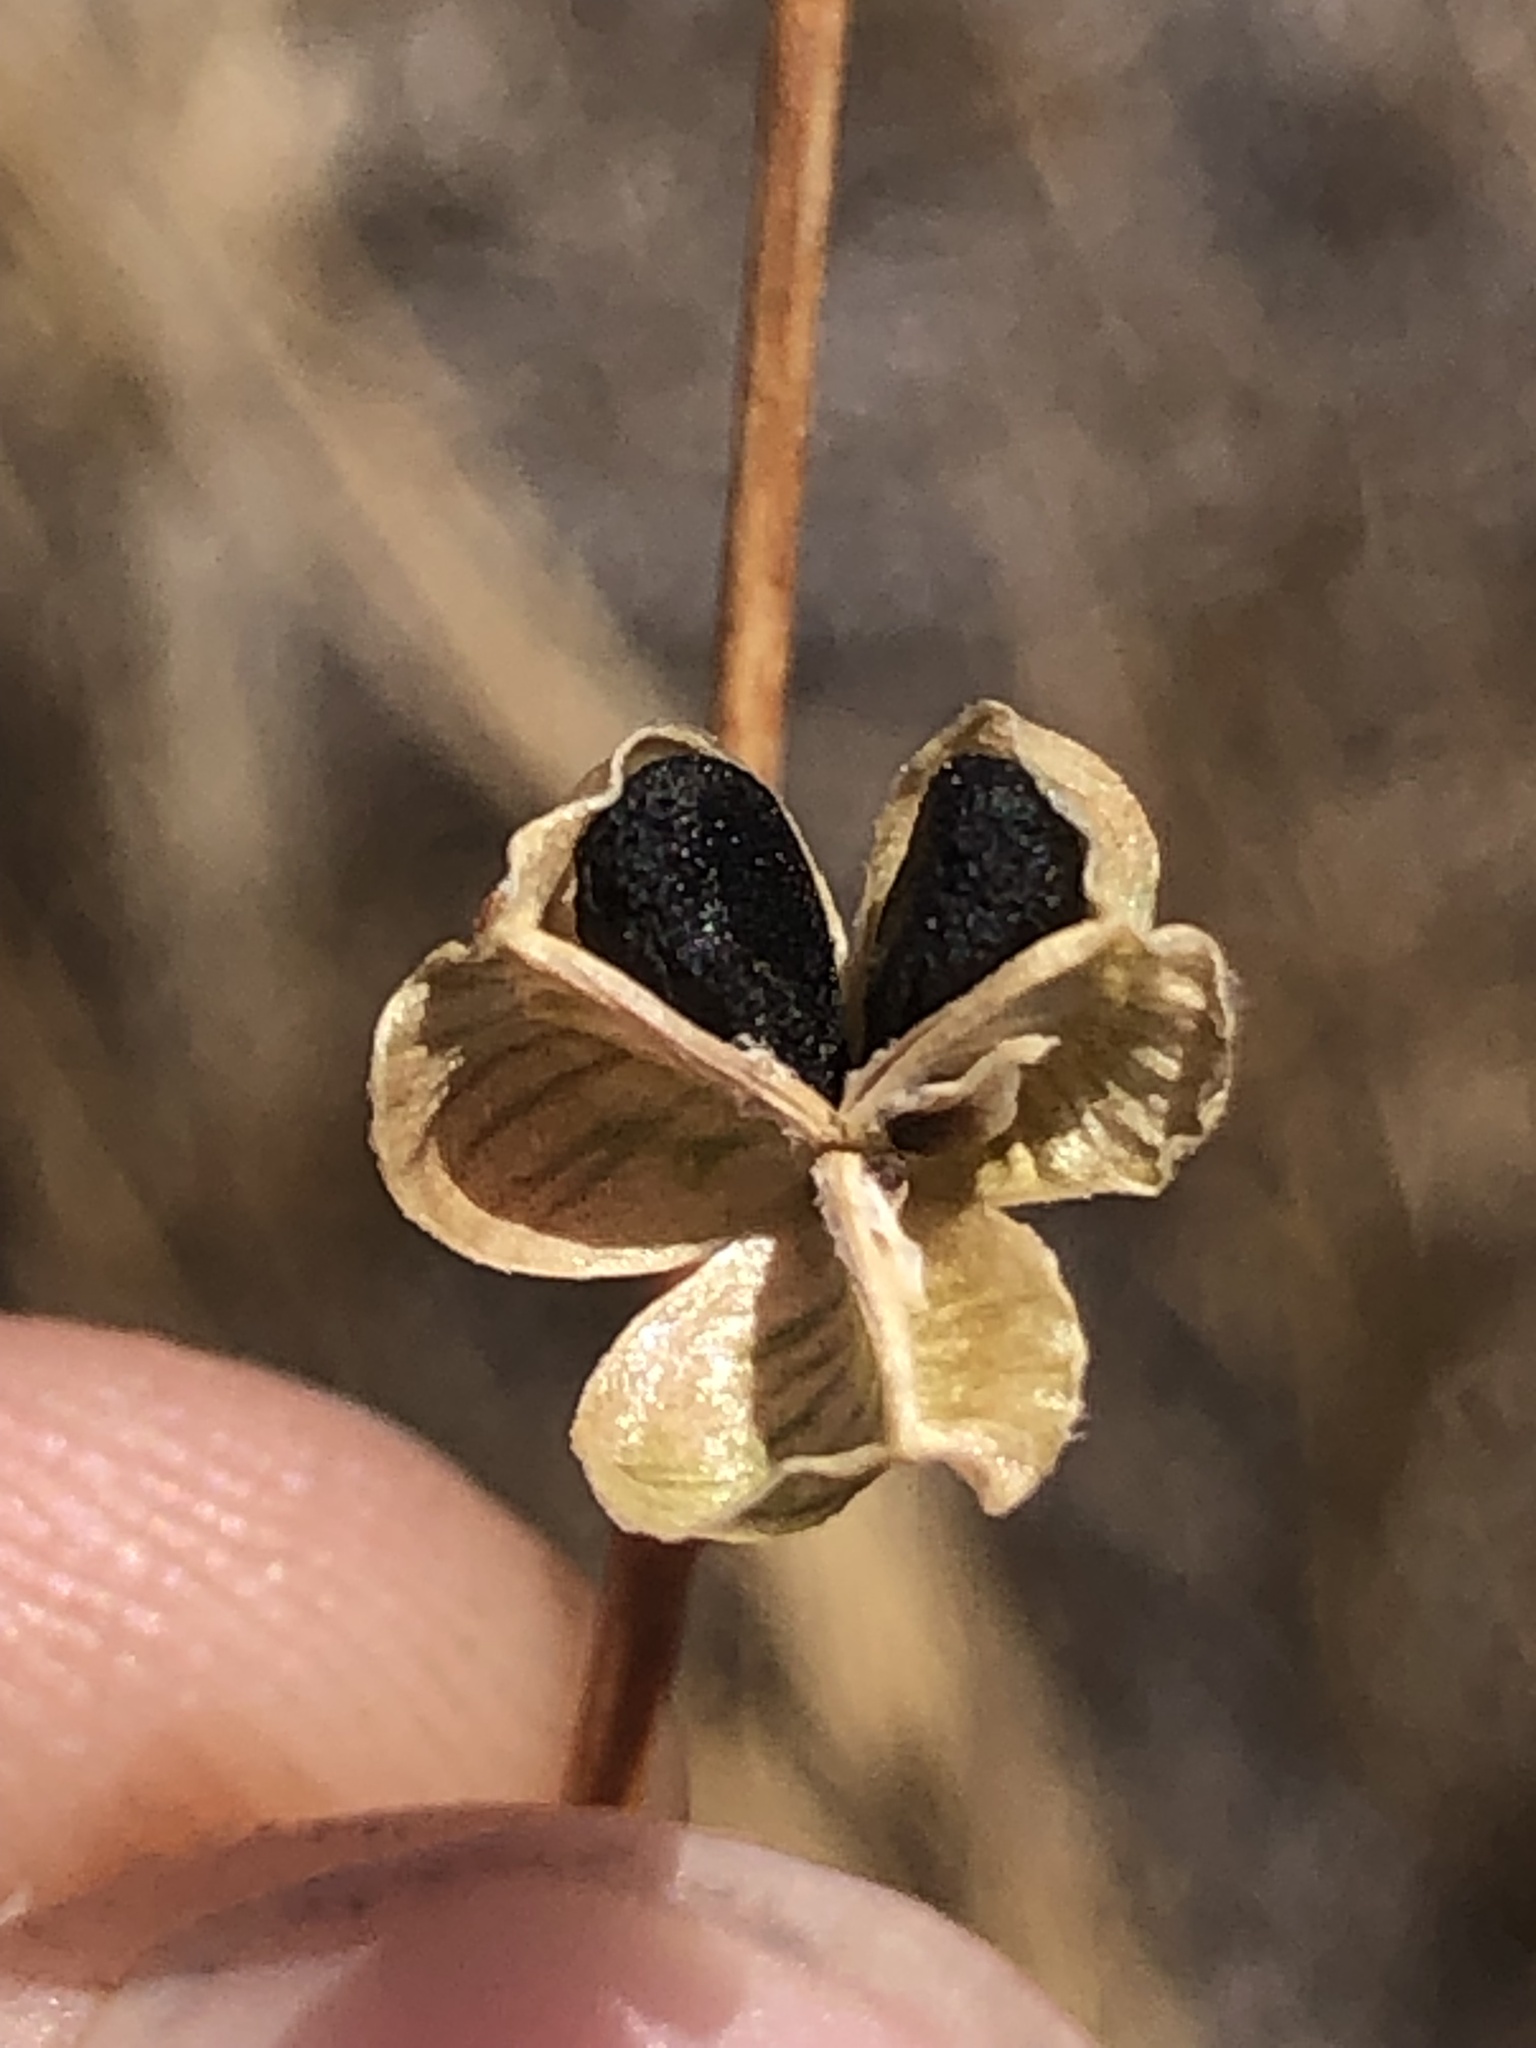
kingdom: Plantae
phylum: Tracheophyta
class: Liliopsida
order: Asparagales
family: Asparagaceae
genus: Chlorogalum
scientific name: Chlorogalum pomeridianum
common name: Amole
